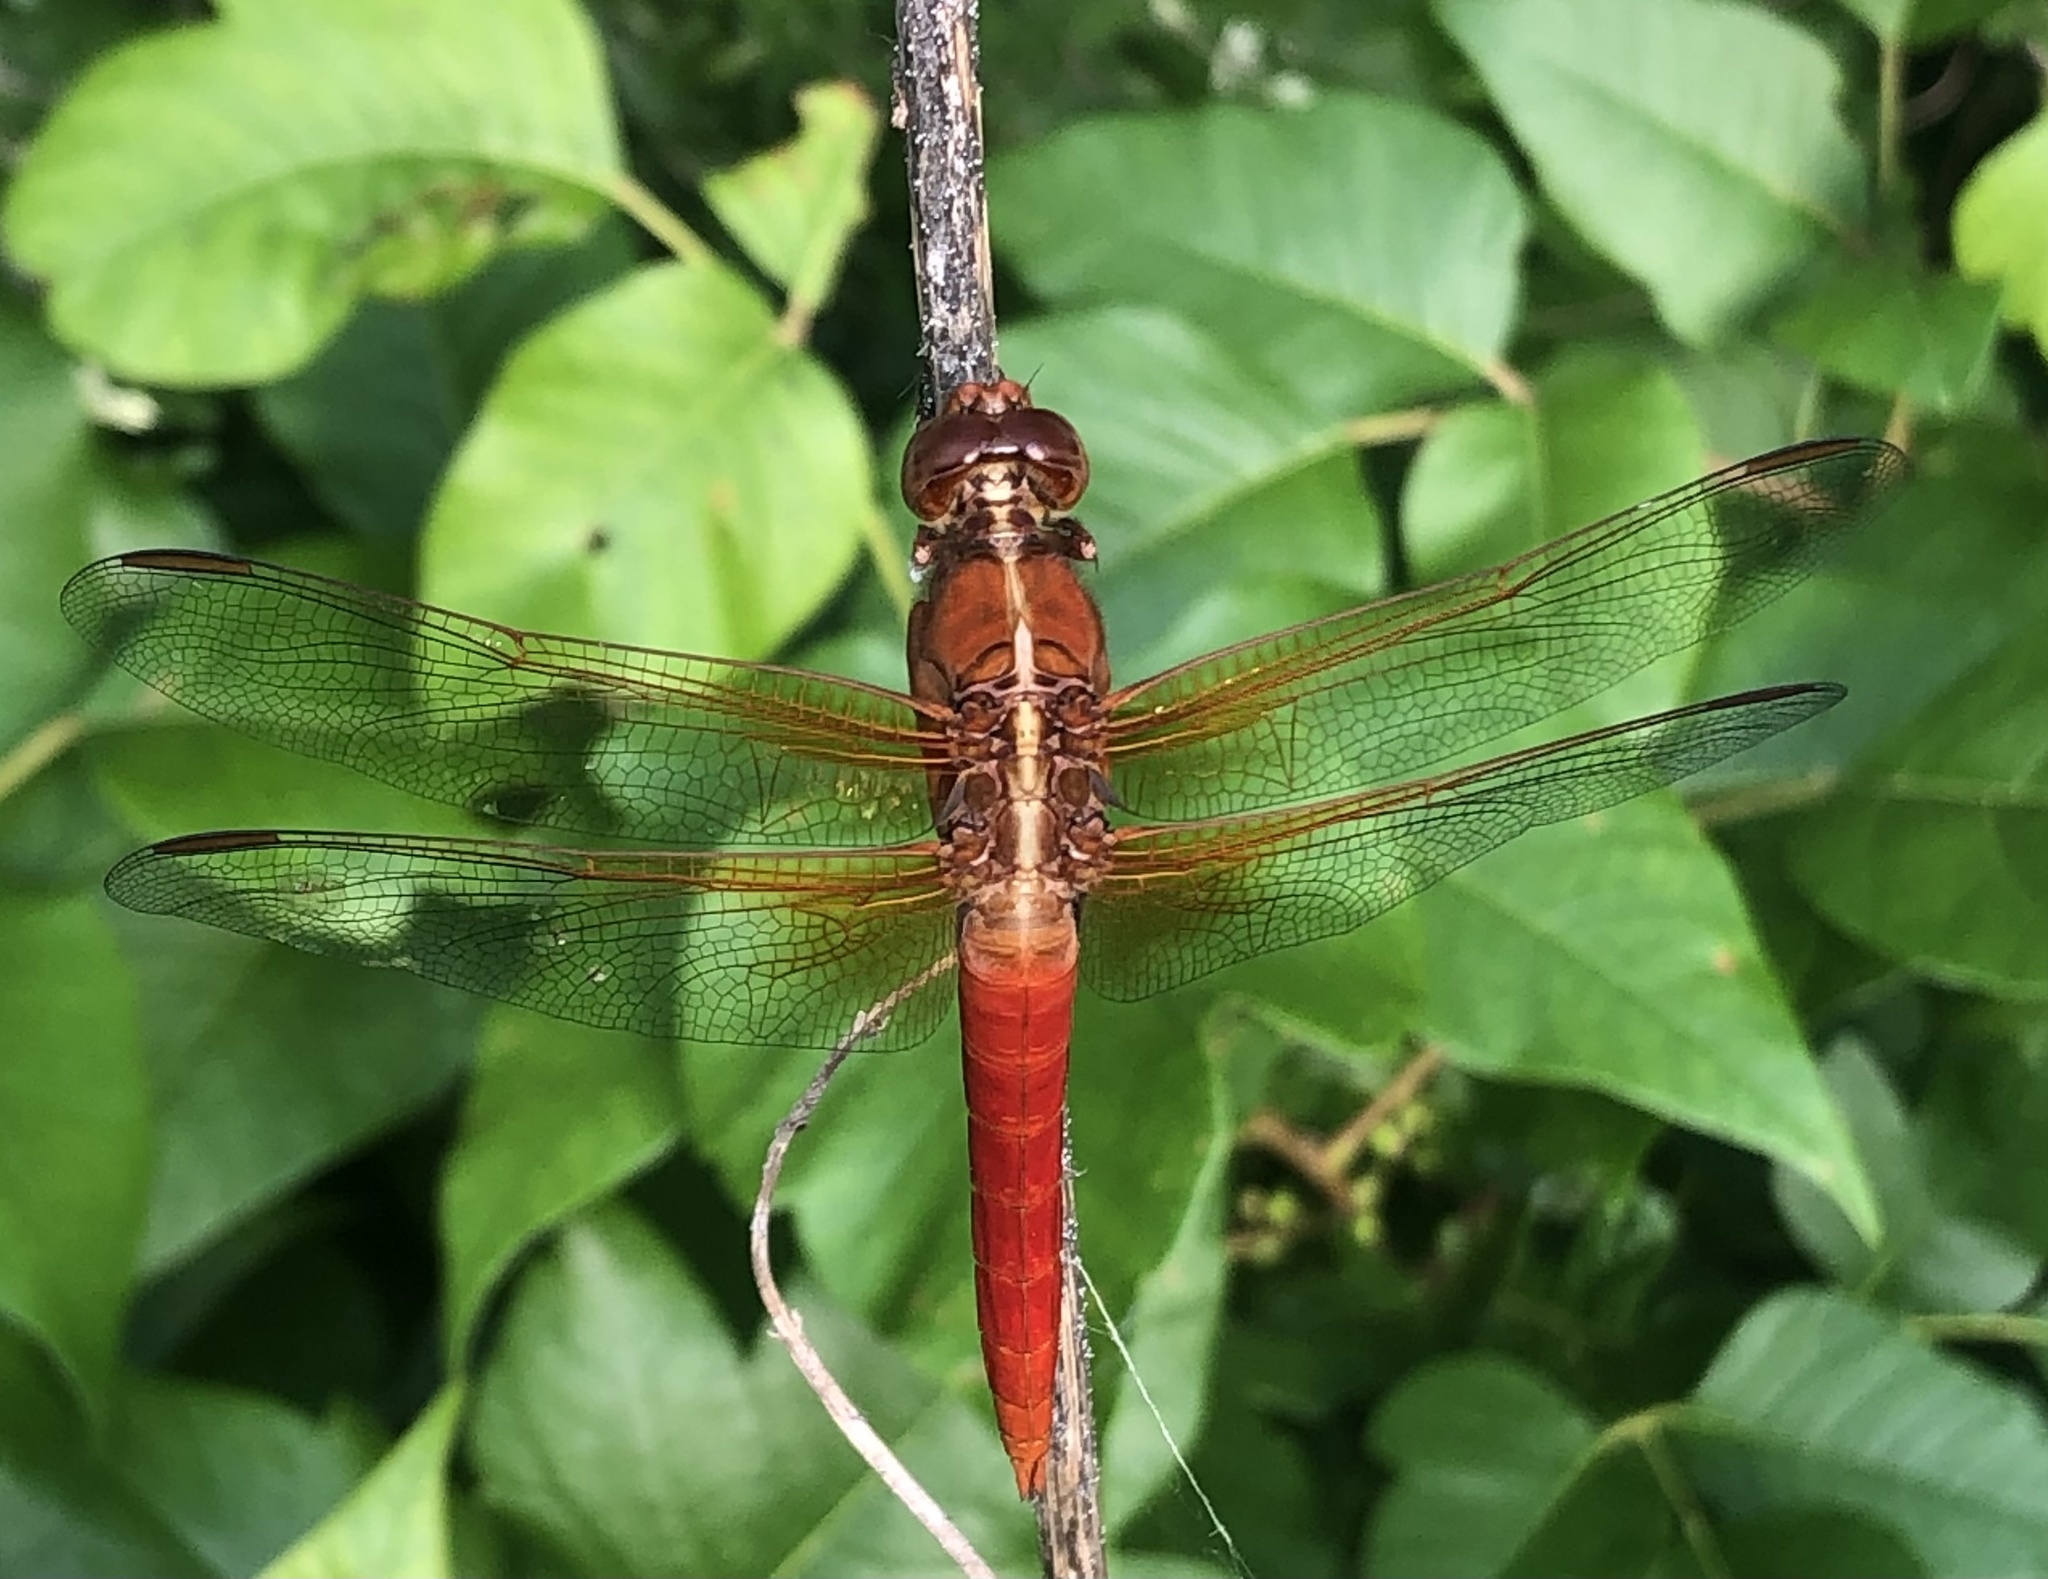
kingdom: Animalia
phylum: Arthropoda
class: Insecta
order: Odonata
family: Libellulidae
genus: Libellula
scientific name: Libellula croceipennis
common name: Neon skimmer
